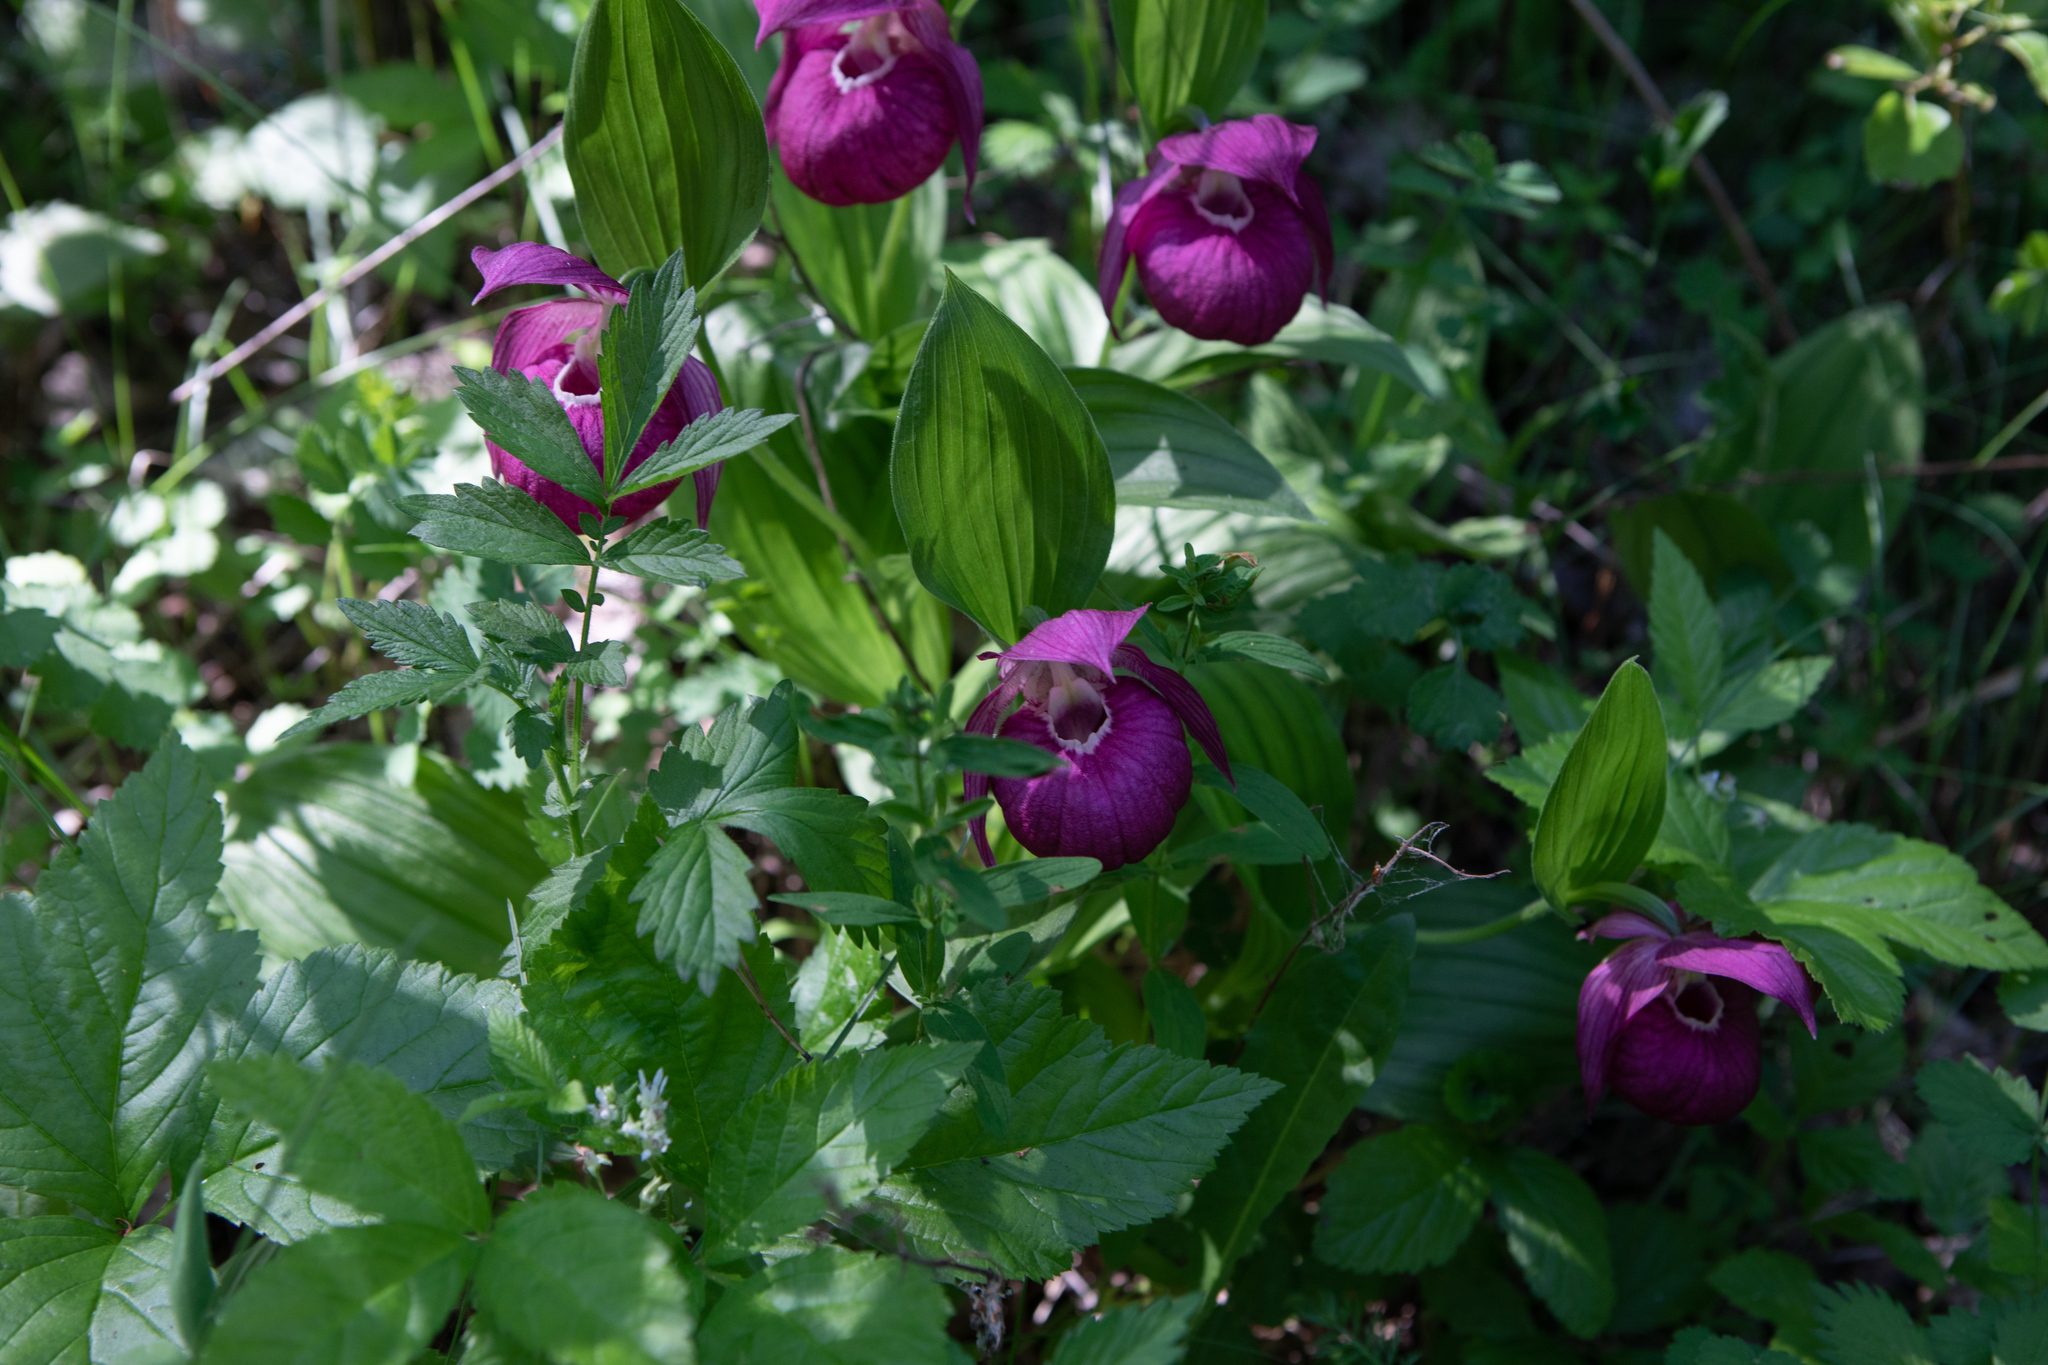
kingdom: Plantae
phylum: Tracheophyta
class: Liliopsida
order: Asparagales
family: Orchidaceae
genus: Cypripedium
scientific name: Cypripedium macranthos
